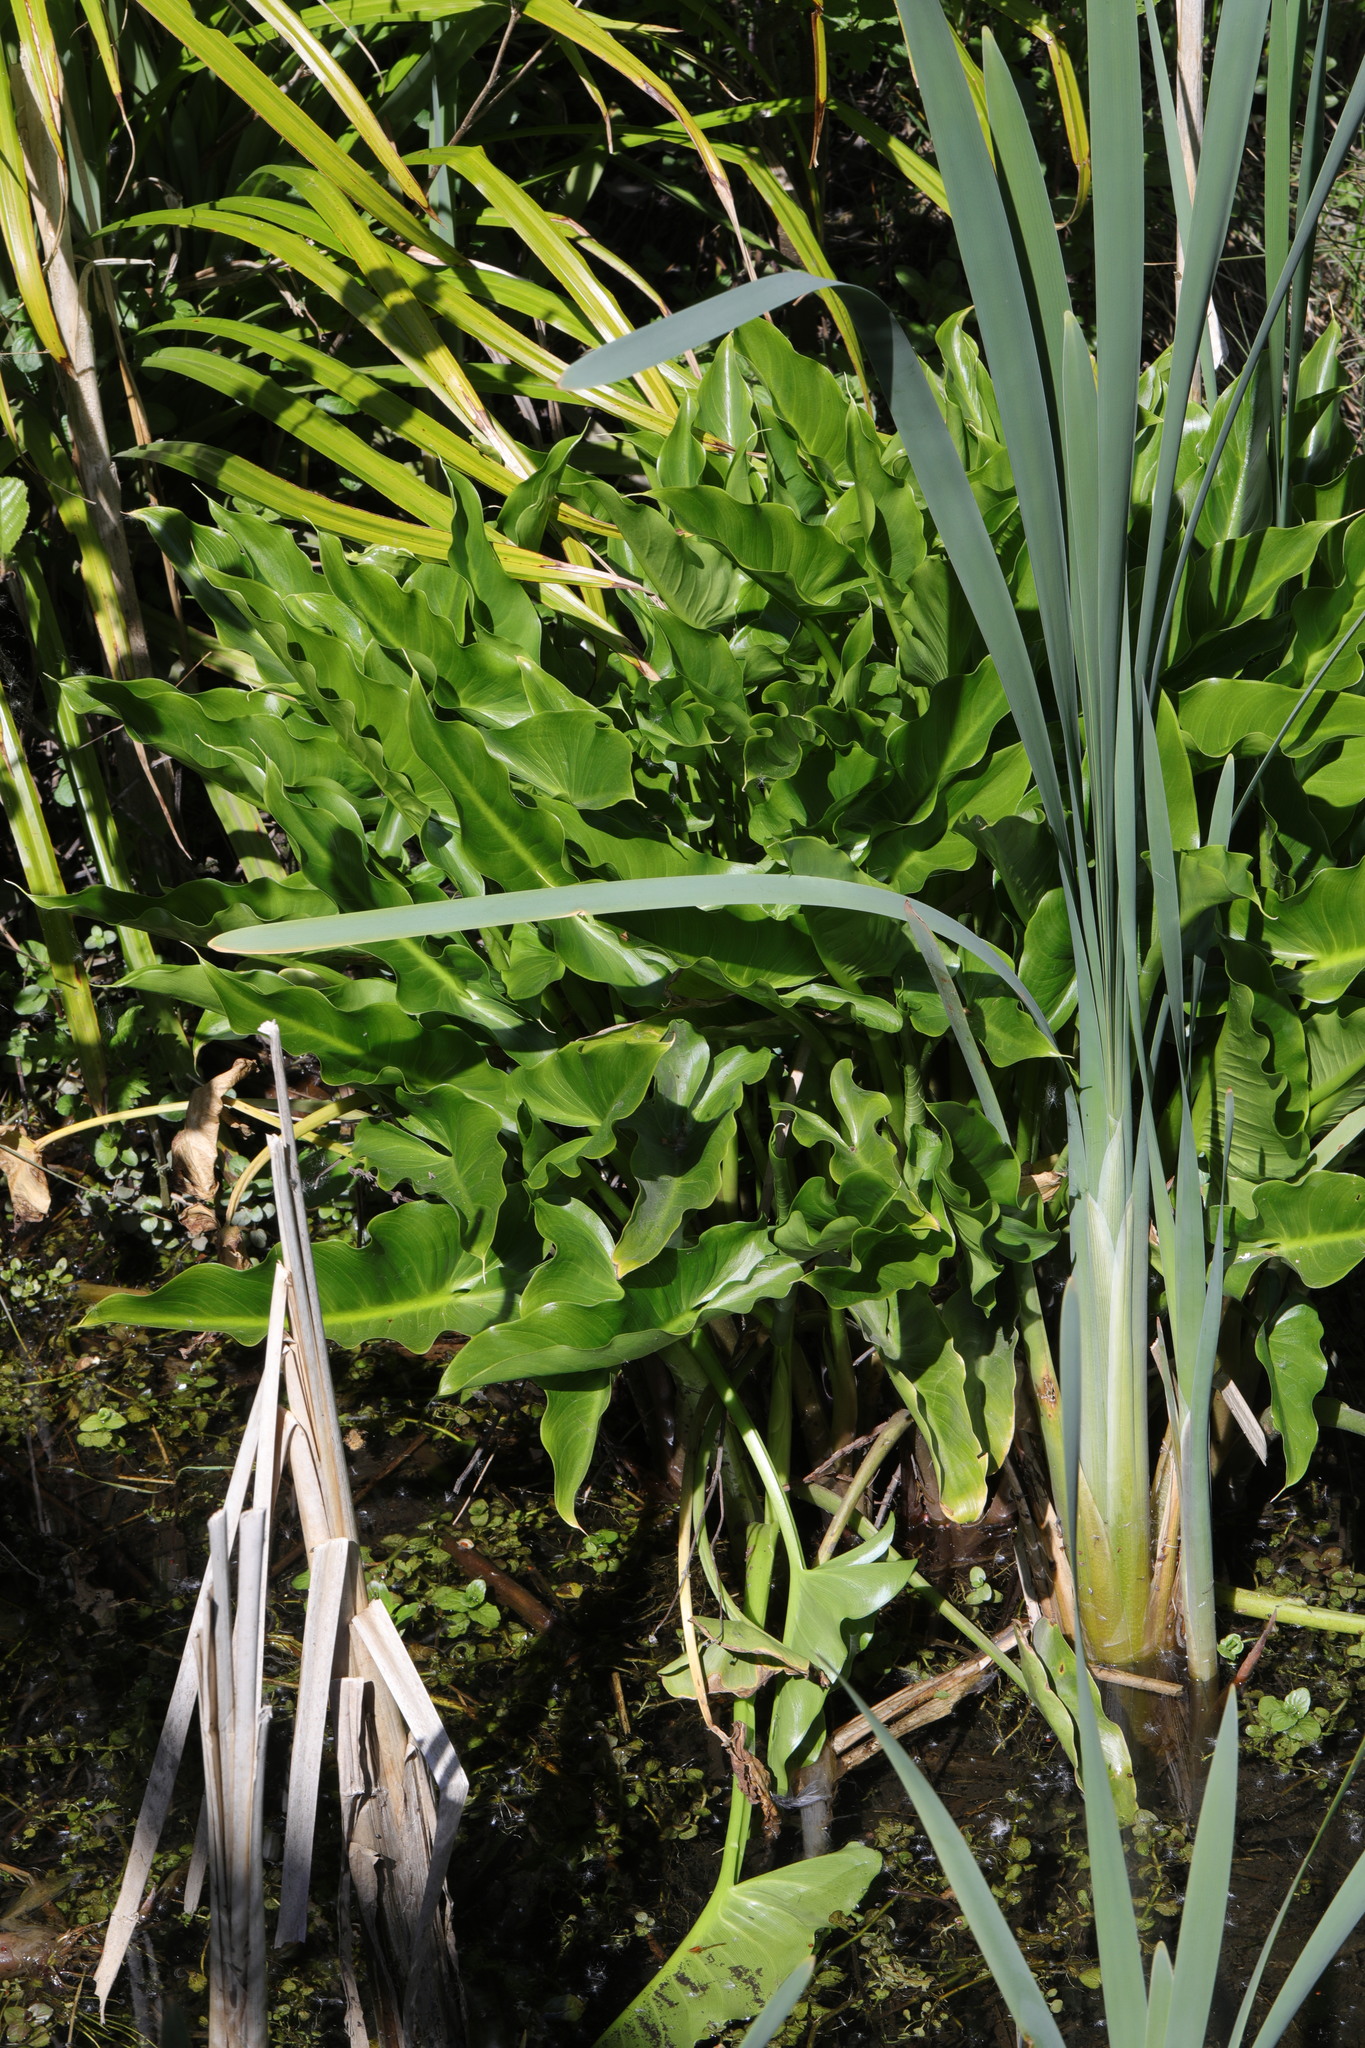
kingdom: Plantae
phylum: Tracheophyta
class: Liliopsida
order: Alismatales
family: Araceae
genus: Zantedeschia
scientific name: Zantedeschia aethiopica
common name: Altar-lily
